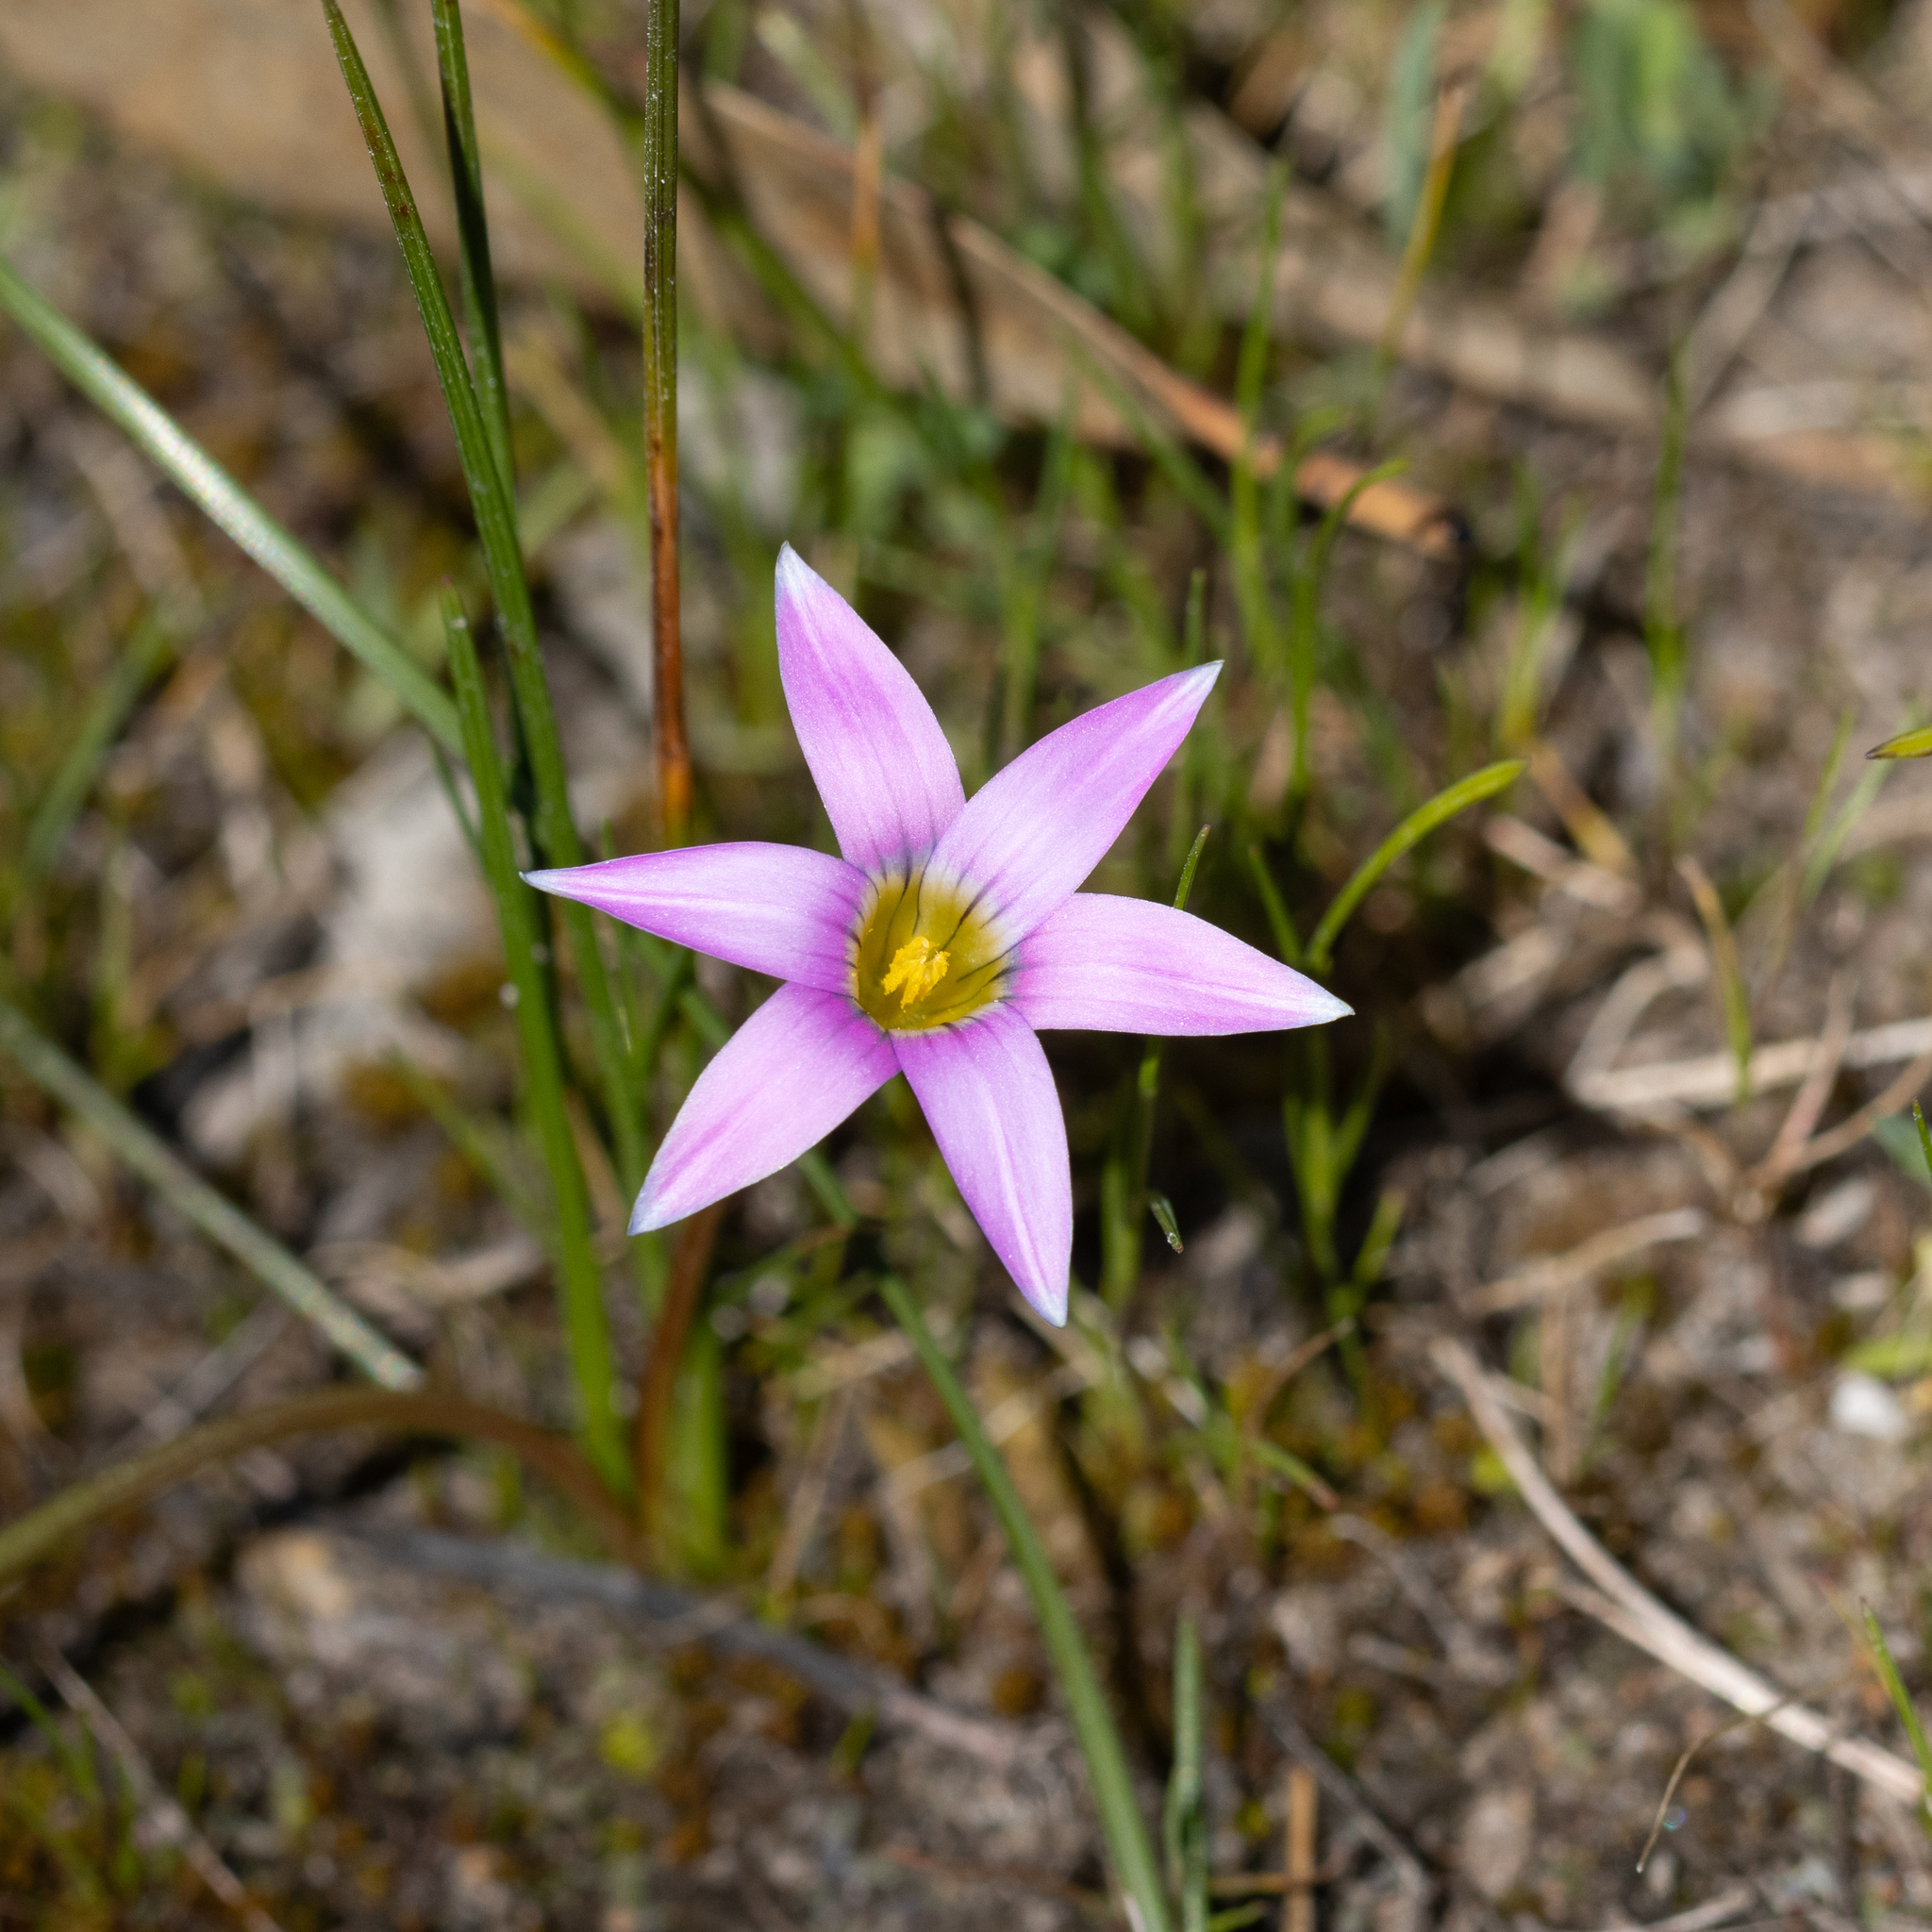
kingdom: Plantae
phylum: Tracheophyta
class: Liliopsida
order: Asparagales
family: Iridaceae
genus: Romulea
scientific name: Romulea rosea
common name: Oniongrass
